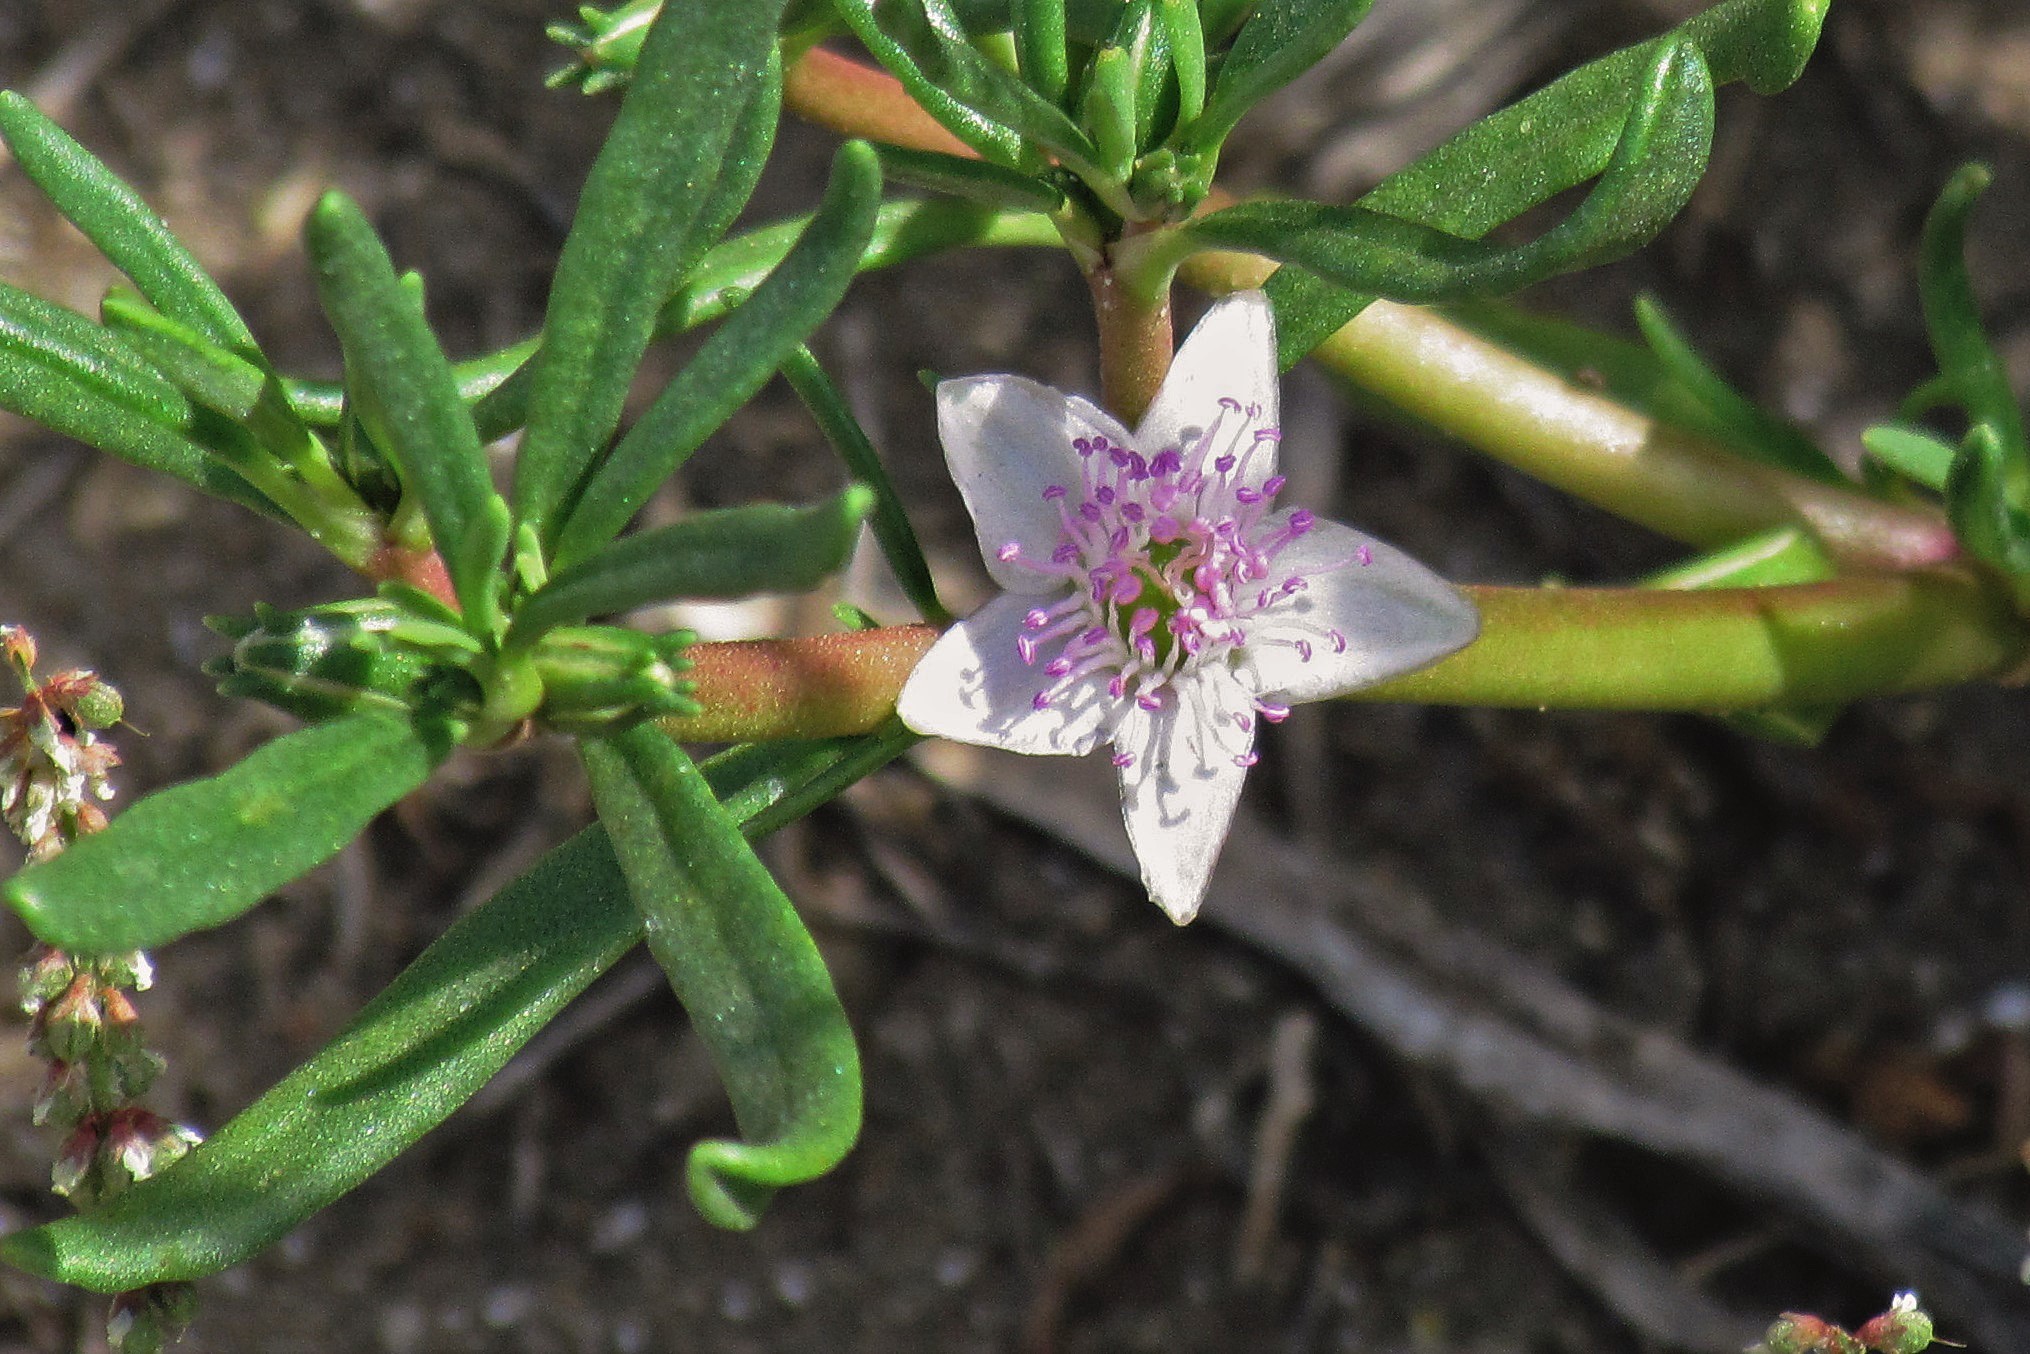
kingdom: Plantae
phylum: Tracheophyta
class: Magnoliopsida
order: Caryophyllales
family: Aizoaceae
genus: Sesuvium
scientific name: Sesuvium portulacastrum
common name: Sea-purslane
